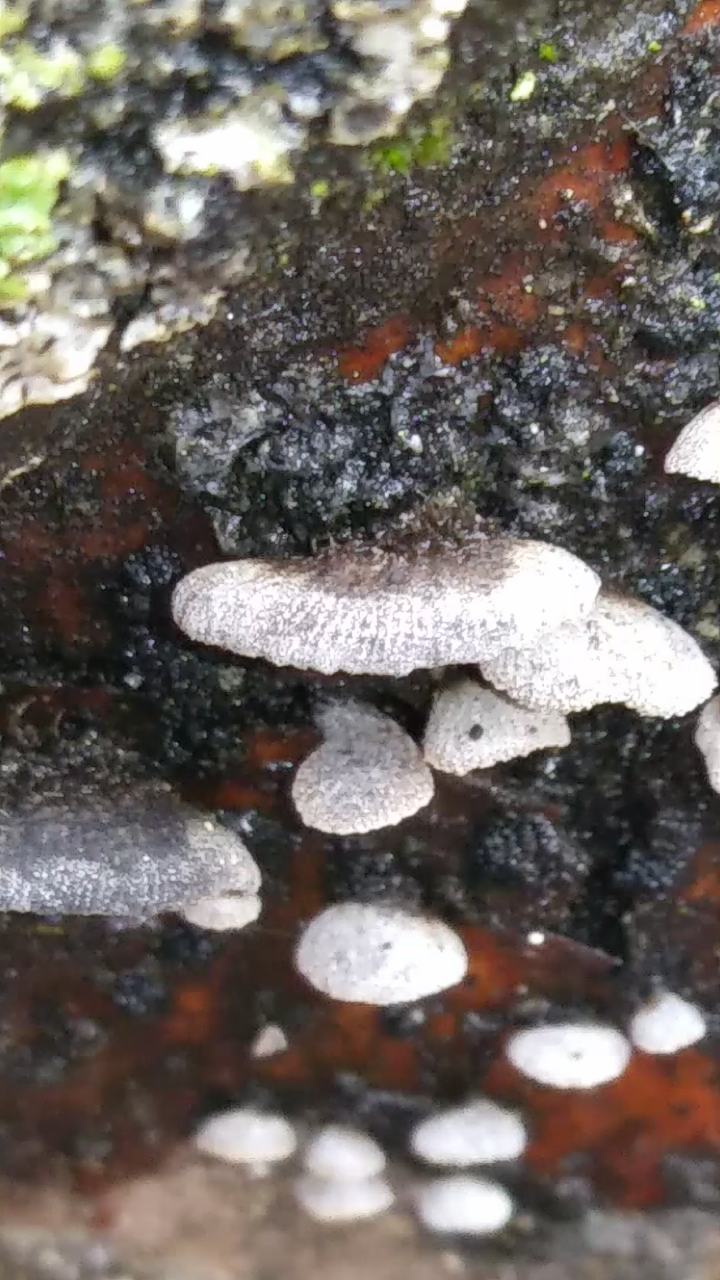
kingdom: Fungi
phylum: Basidiomycota
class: Agaricomycetes
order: Agaricales
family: Pleurotaceae
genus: Resupinatus
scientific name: Resupinatus alboniger
